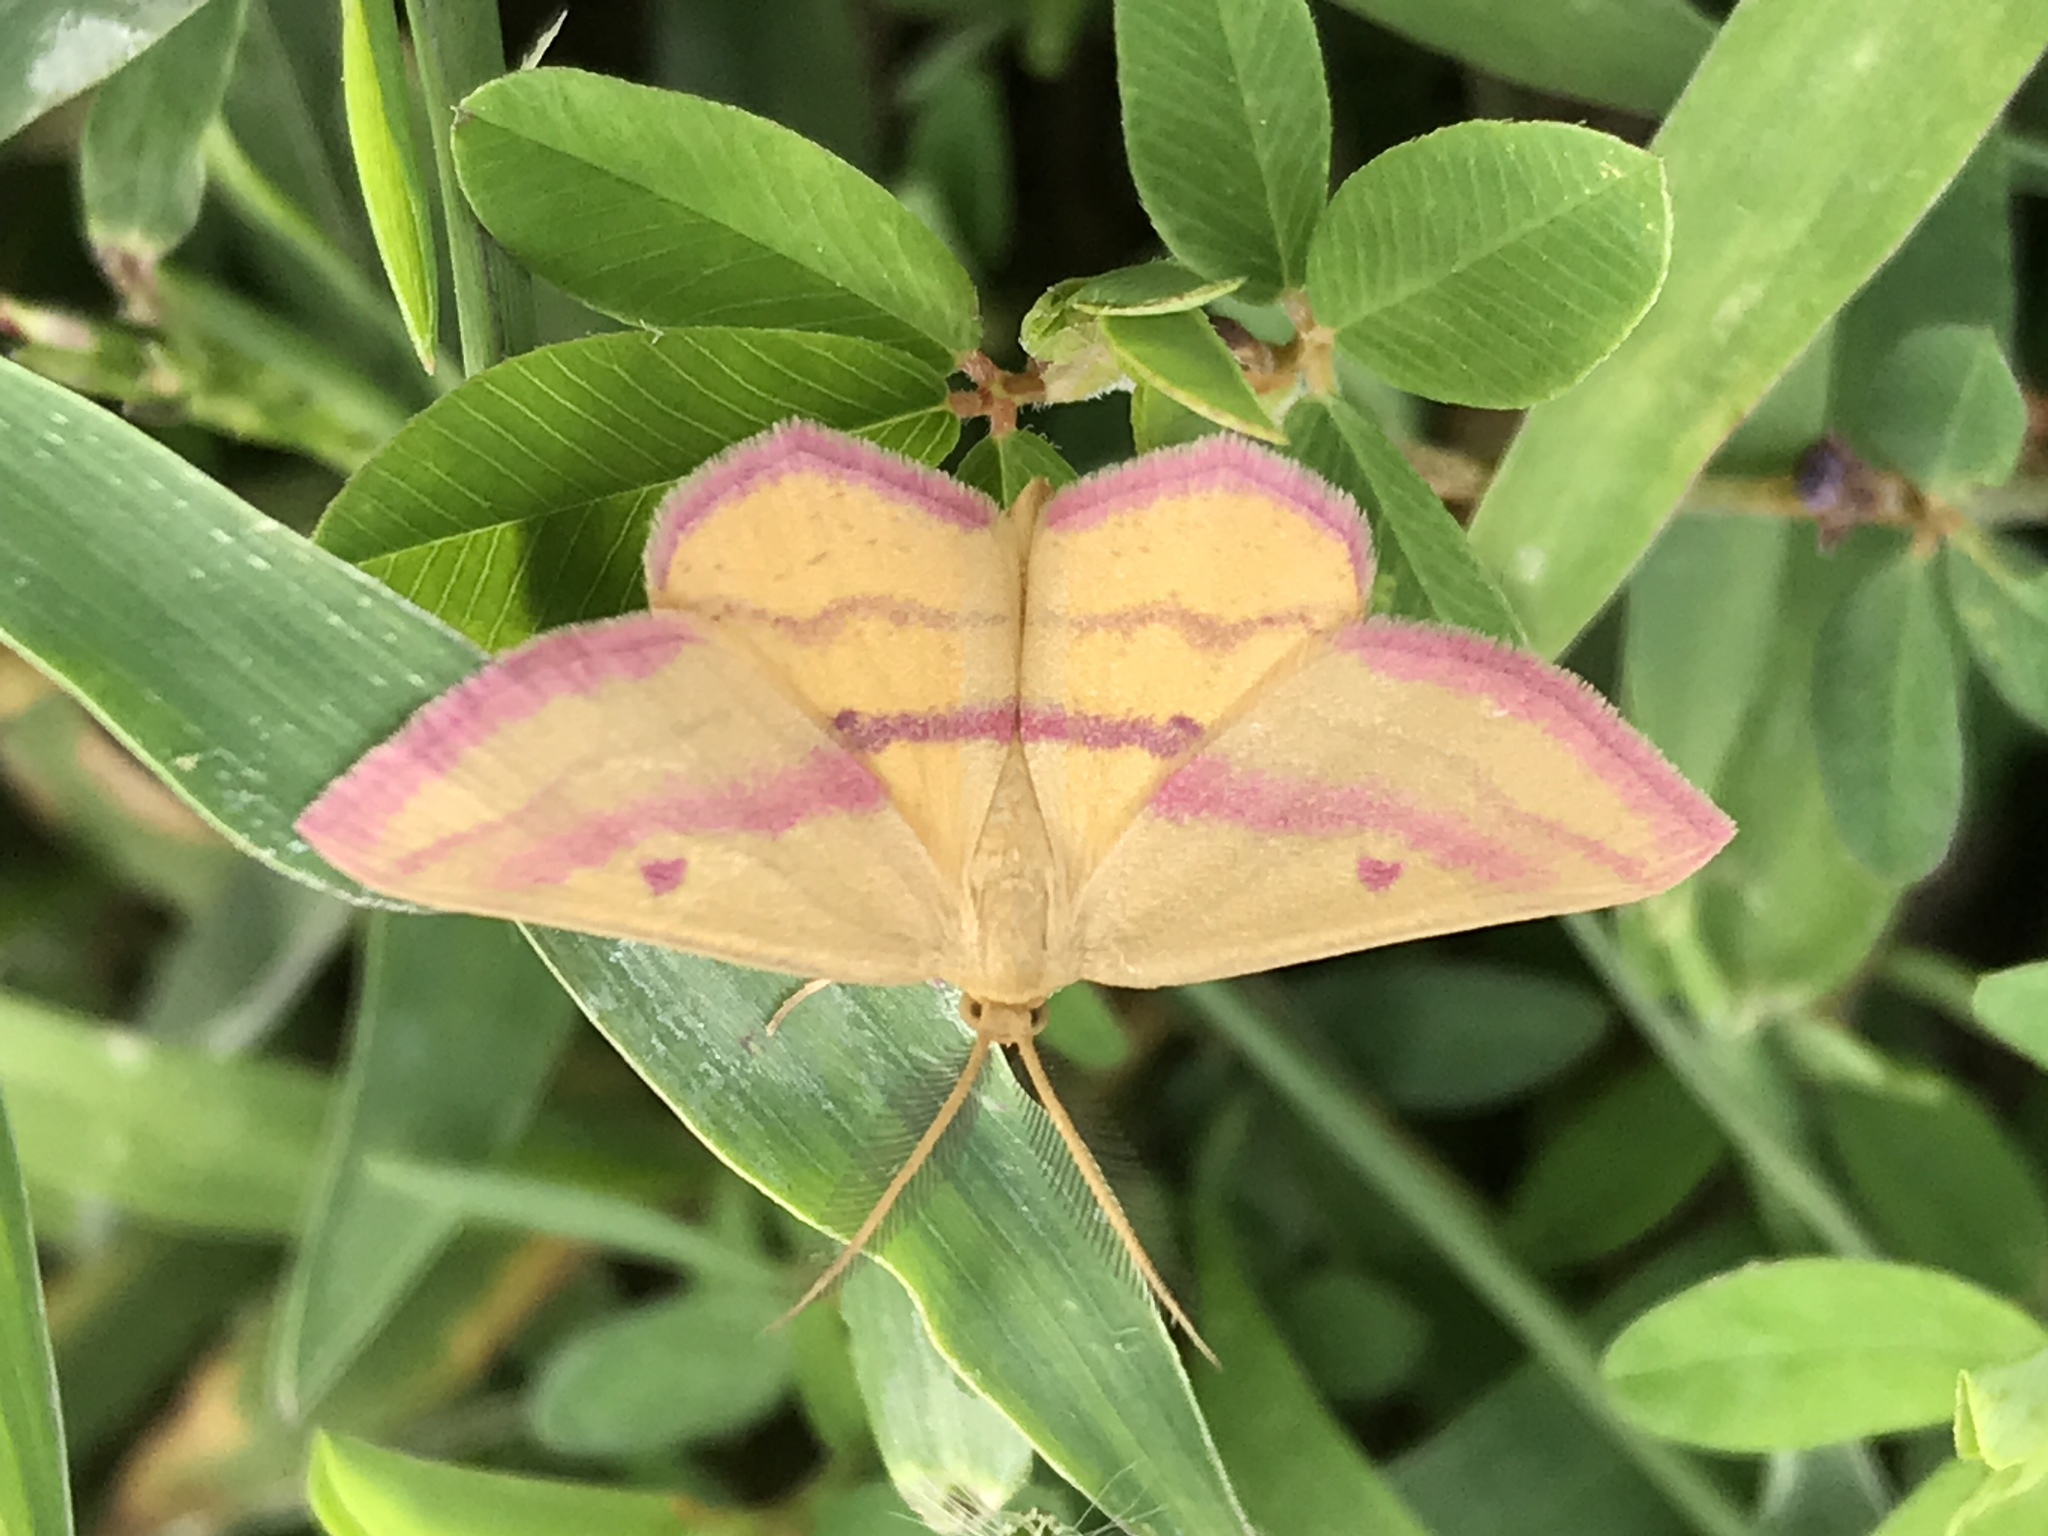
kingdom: Animalia
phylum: Arthropoda
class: Insecta
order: Lepidoptera
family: Geometridae
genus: Haematopis
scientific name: Haematopis grataria
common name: Chickweed geometer
